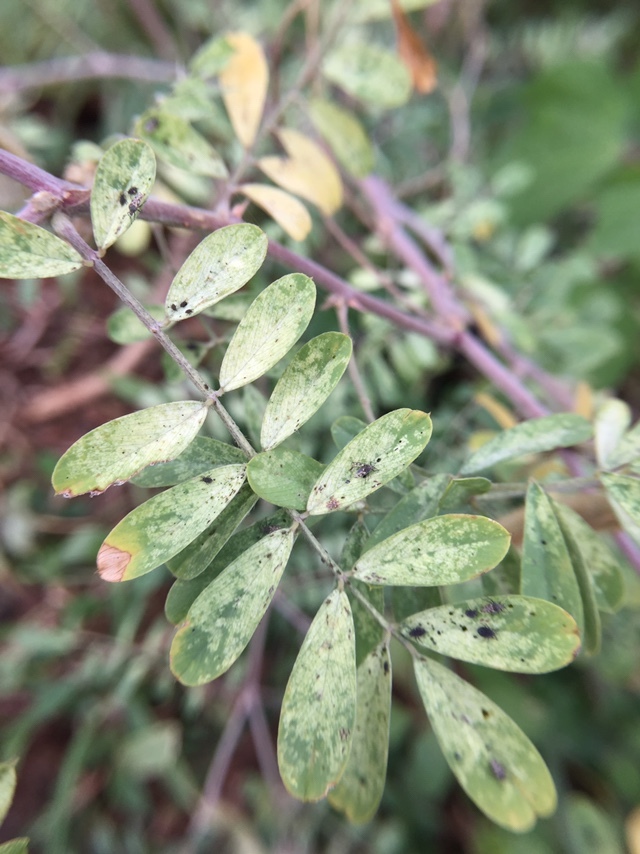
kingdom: Plantae
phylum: Tracheophyta
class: Magnoliopsida
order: Fabales
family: Fabaceae
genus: Tephrosia
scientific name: Tephrosia villosa
